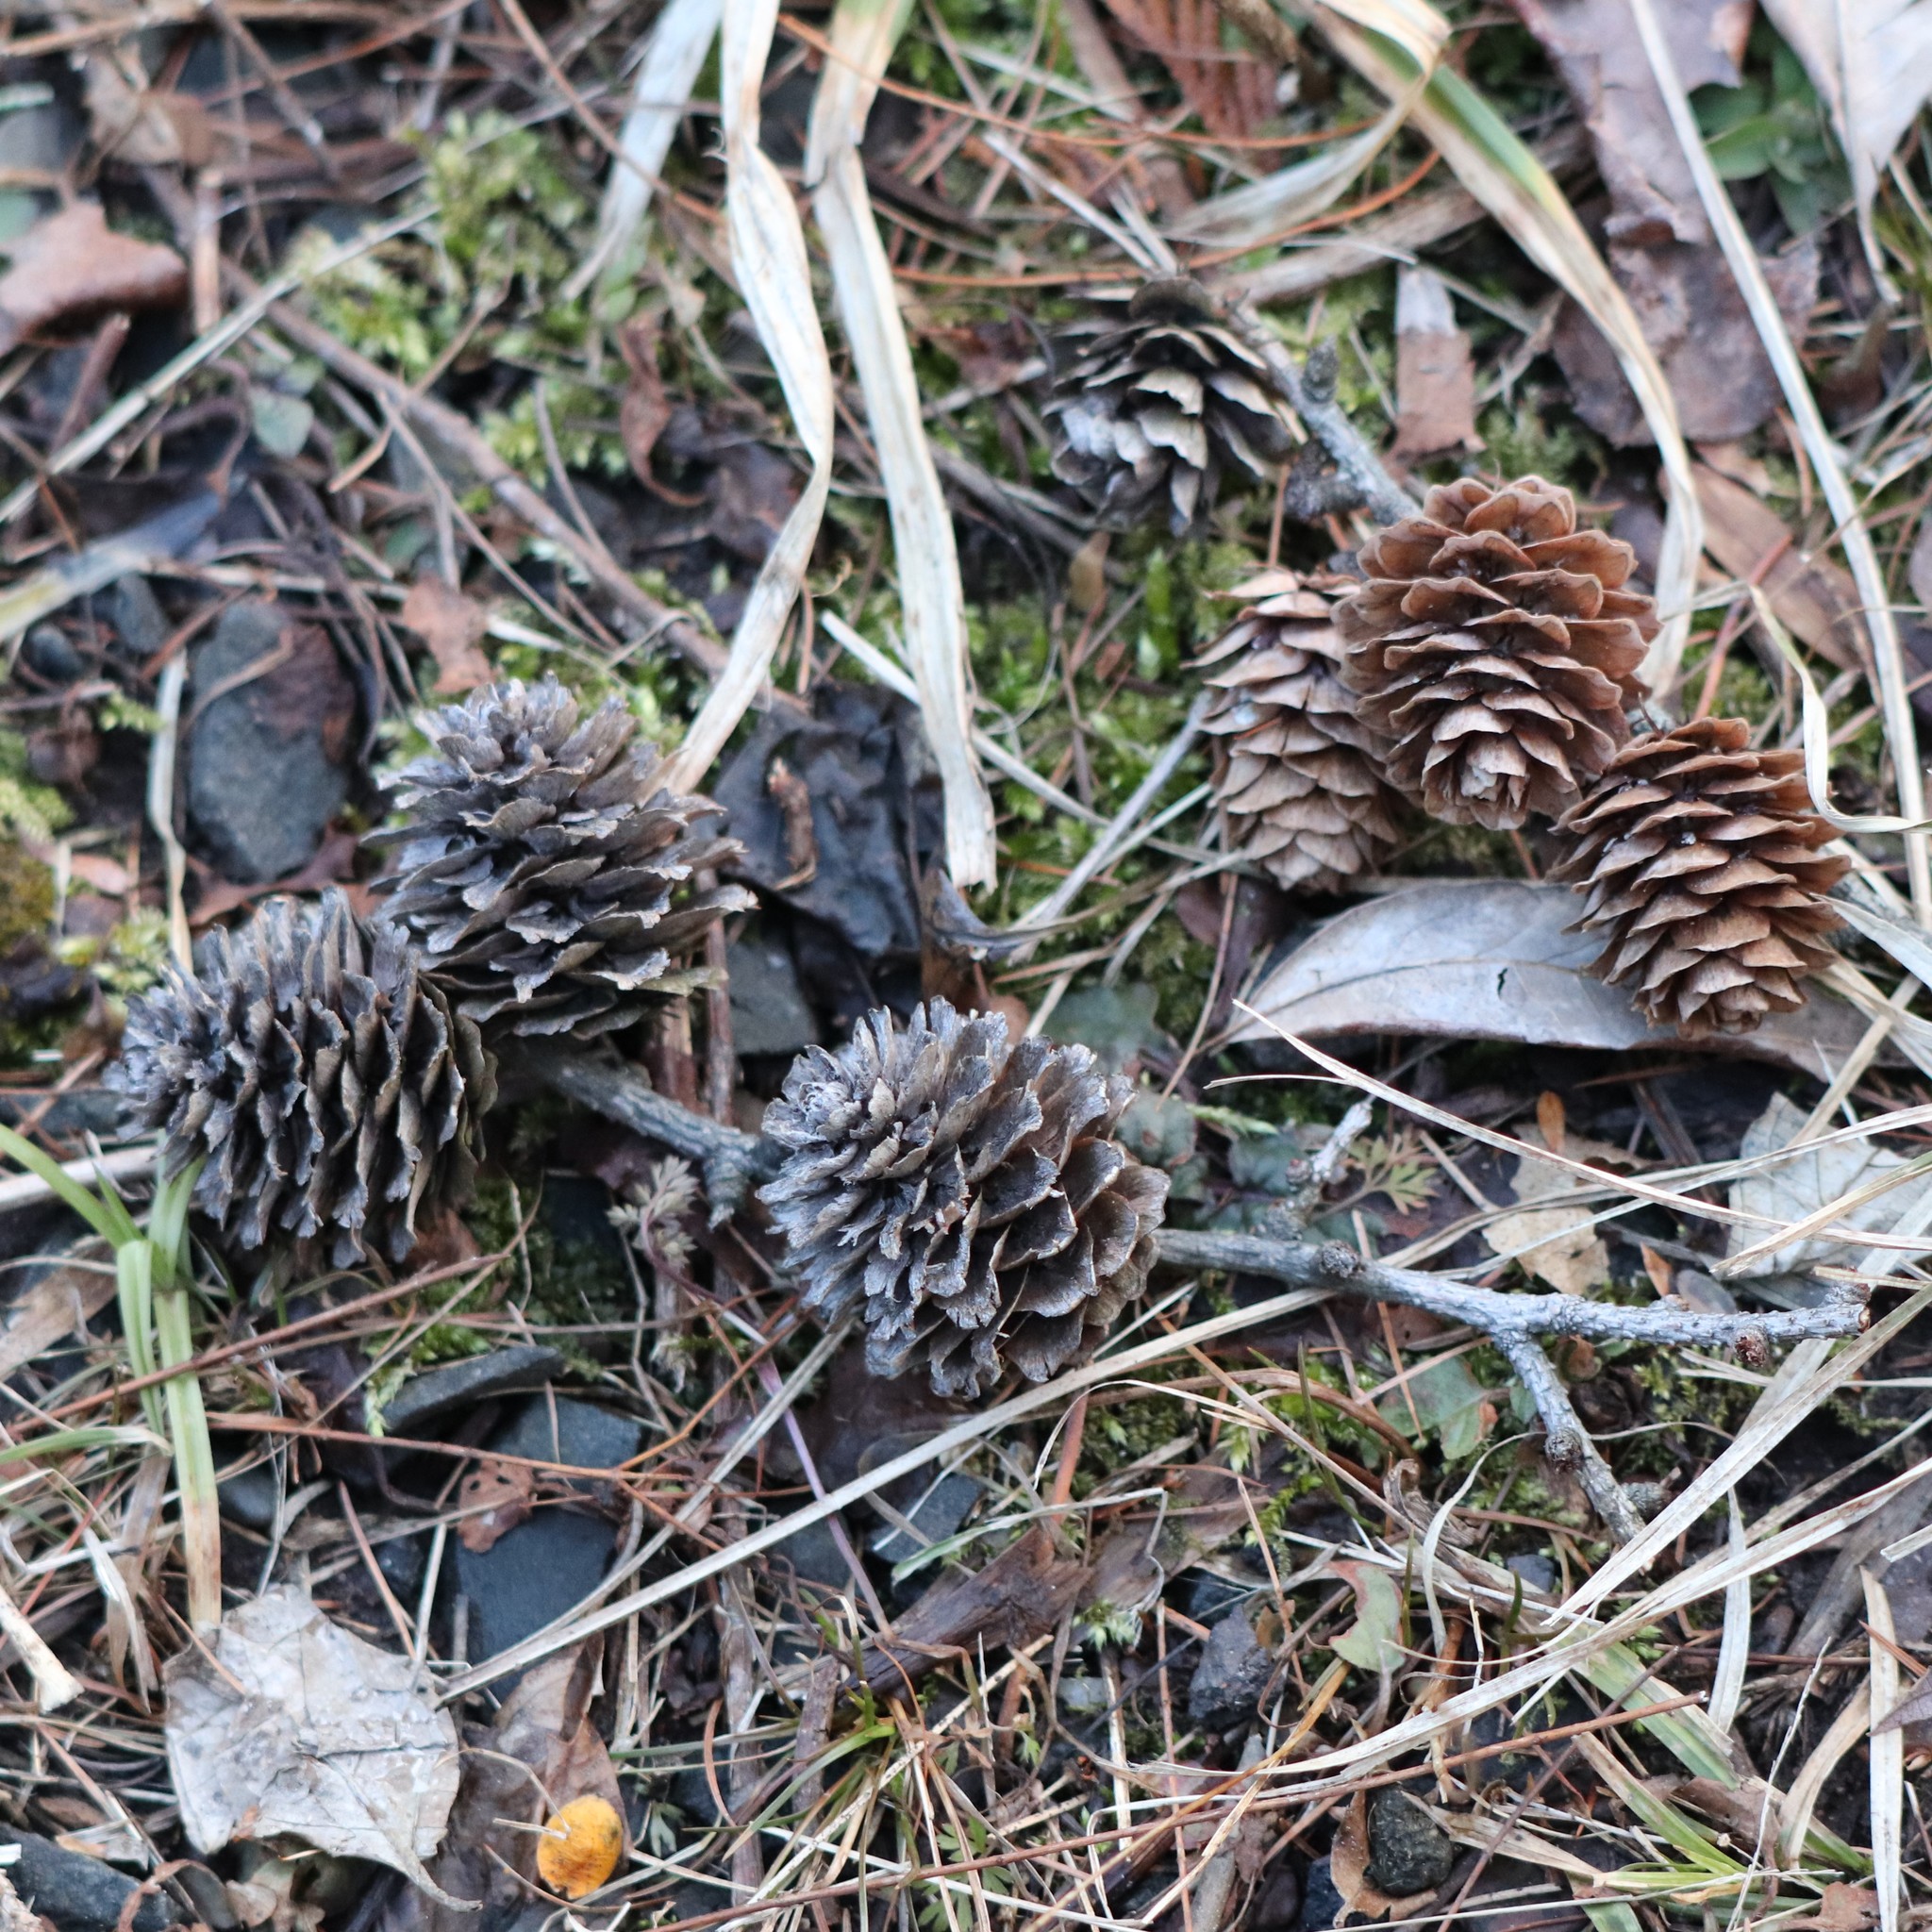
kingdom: Plantae
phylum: Tracheophyta
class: Pinopsida
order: Pinales
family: Pinaceae
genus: Larix
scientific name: Larix decidua
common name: European larch
